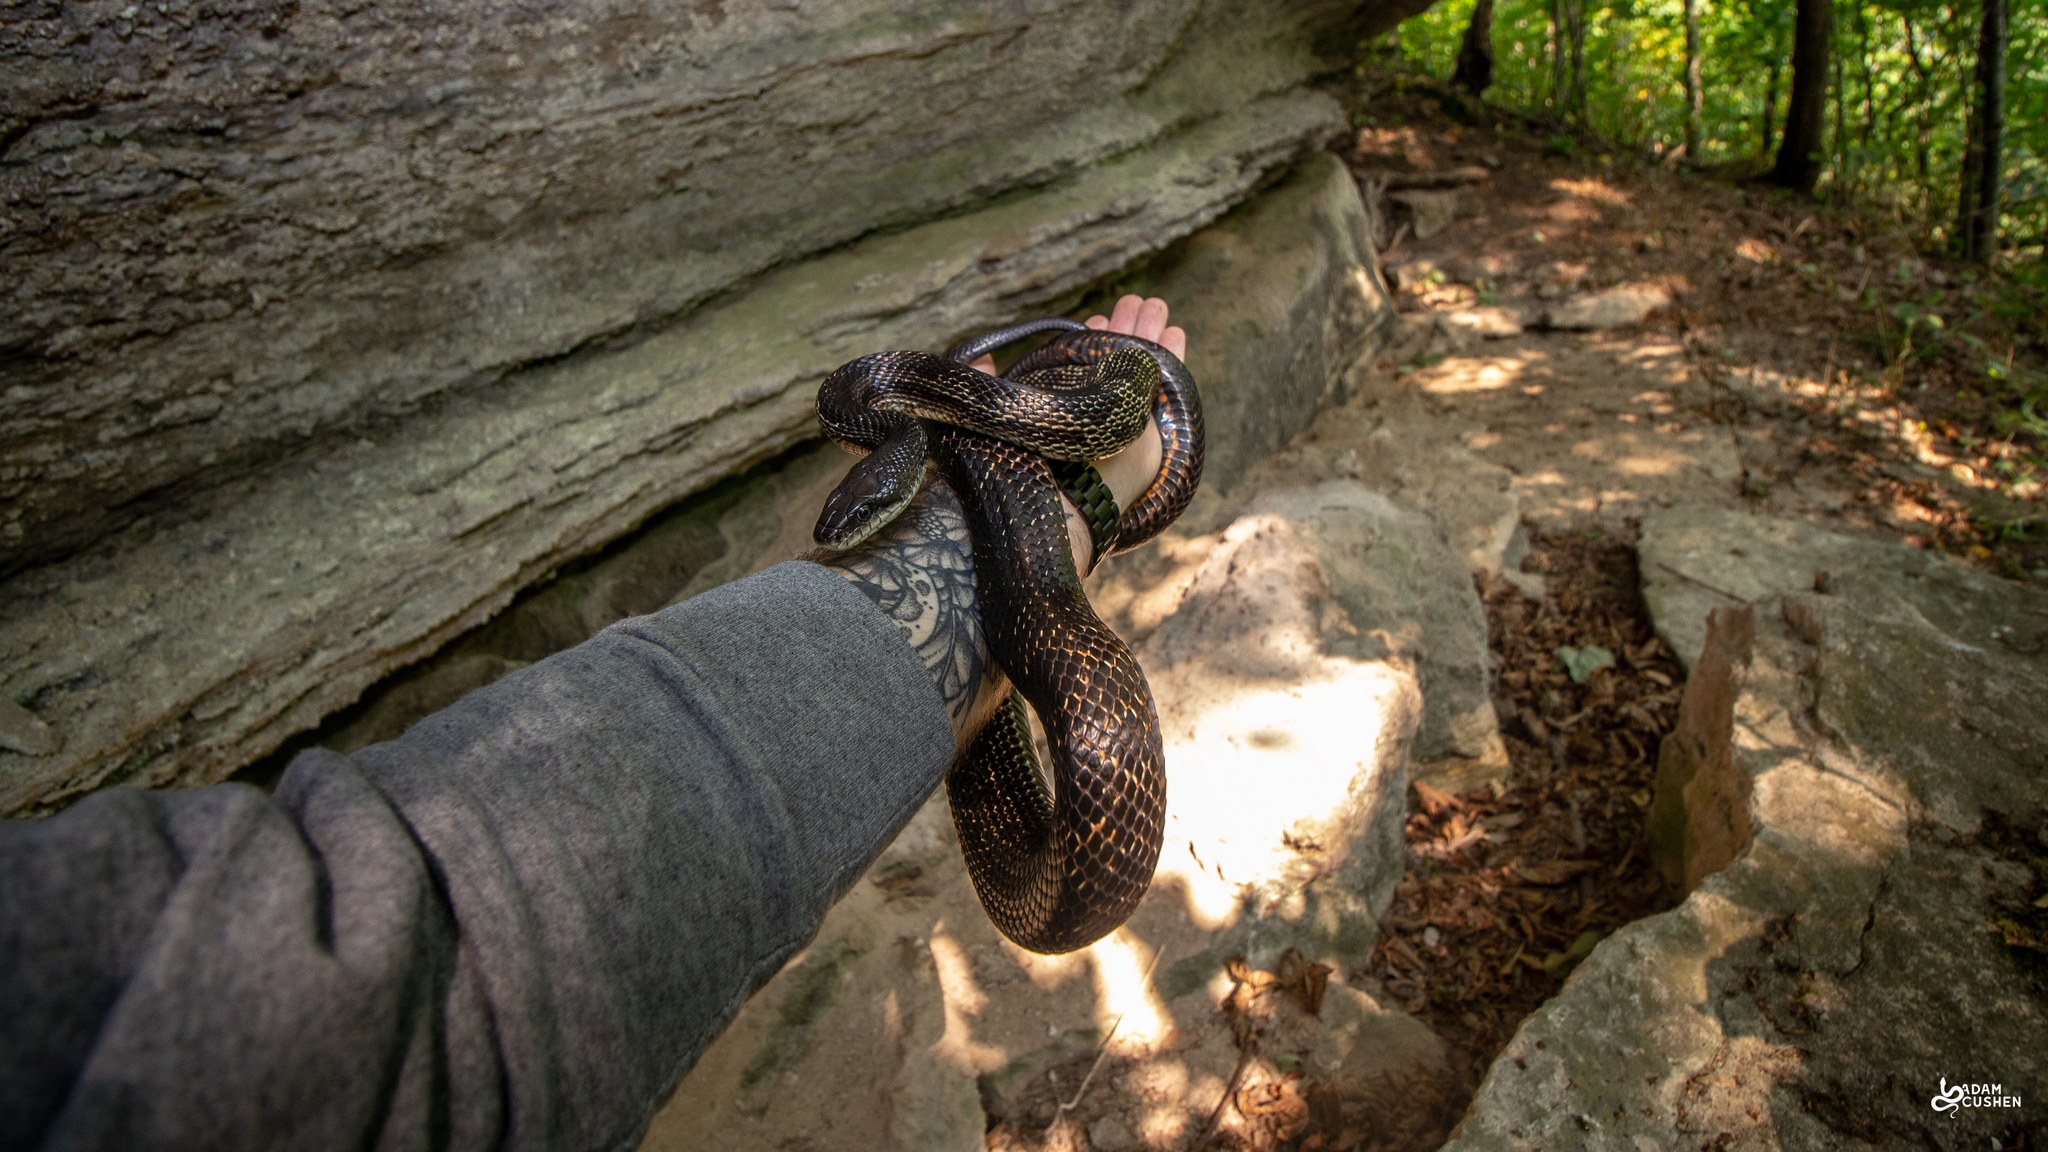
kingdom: Animalia
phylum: Chordata
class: Squamata
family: Colubridae
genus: Pantherophis
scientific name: Pantherophis spiloides
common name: Gray rat snake
